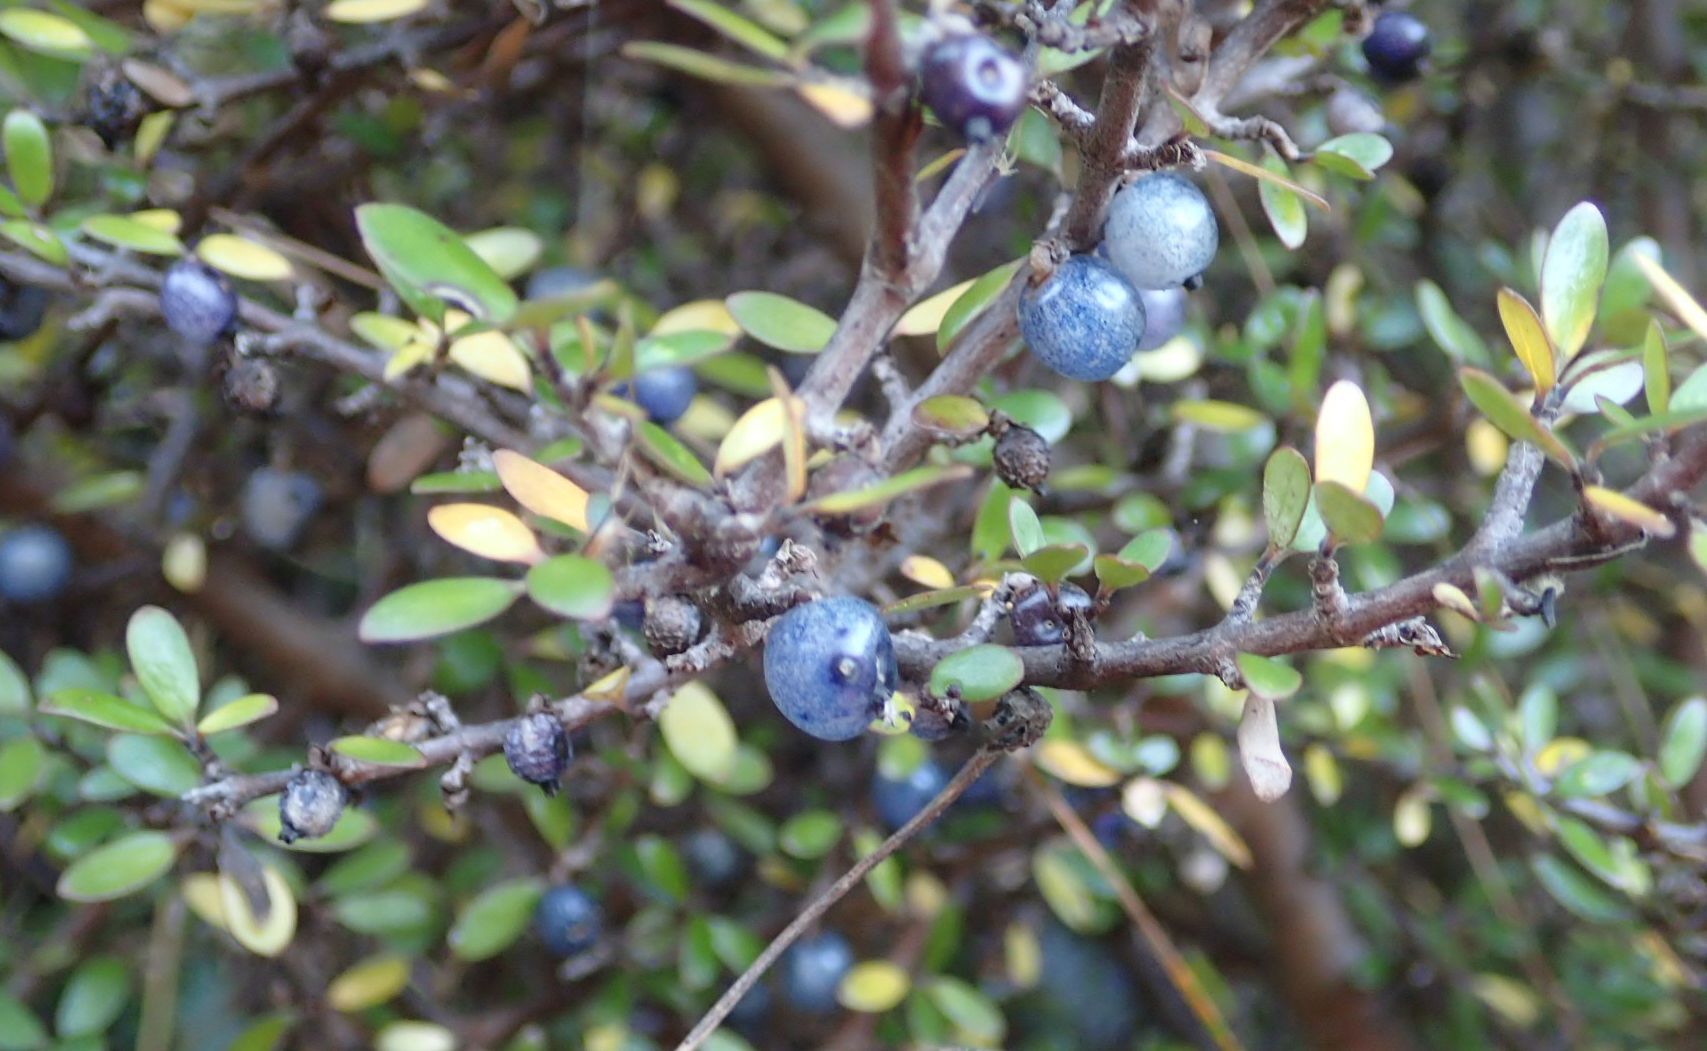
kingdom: Plantae
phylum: Tracheophyta
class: Magnoliopsida
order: Gentianales
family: Rubiaceae
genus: Coprosma
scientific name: Coprosma propinqua
